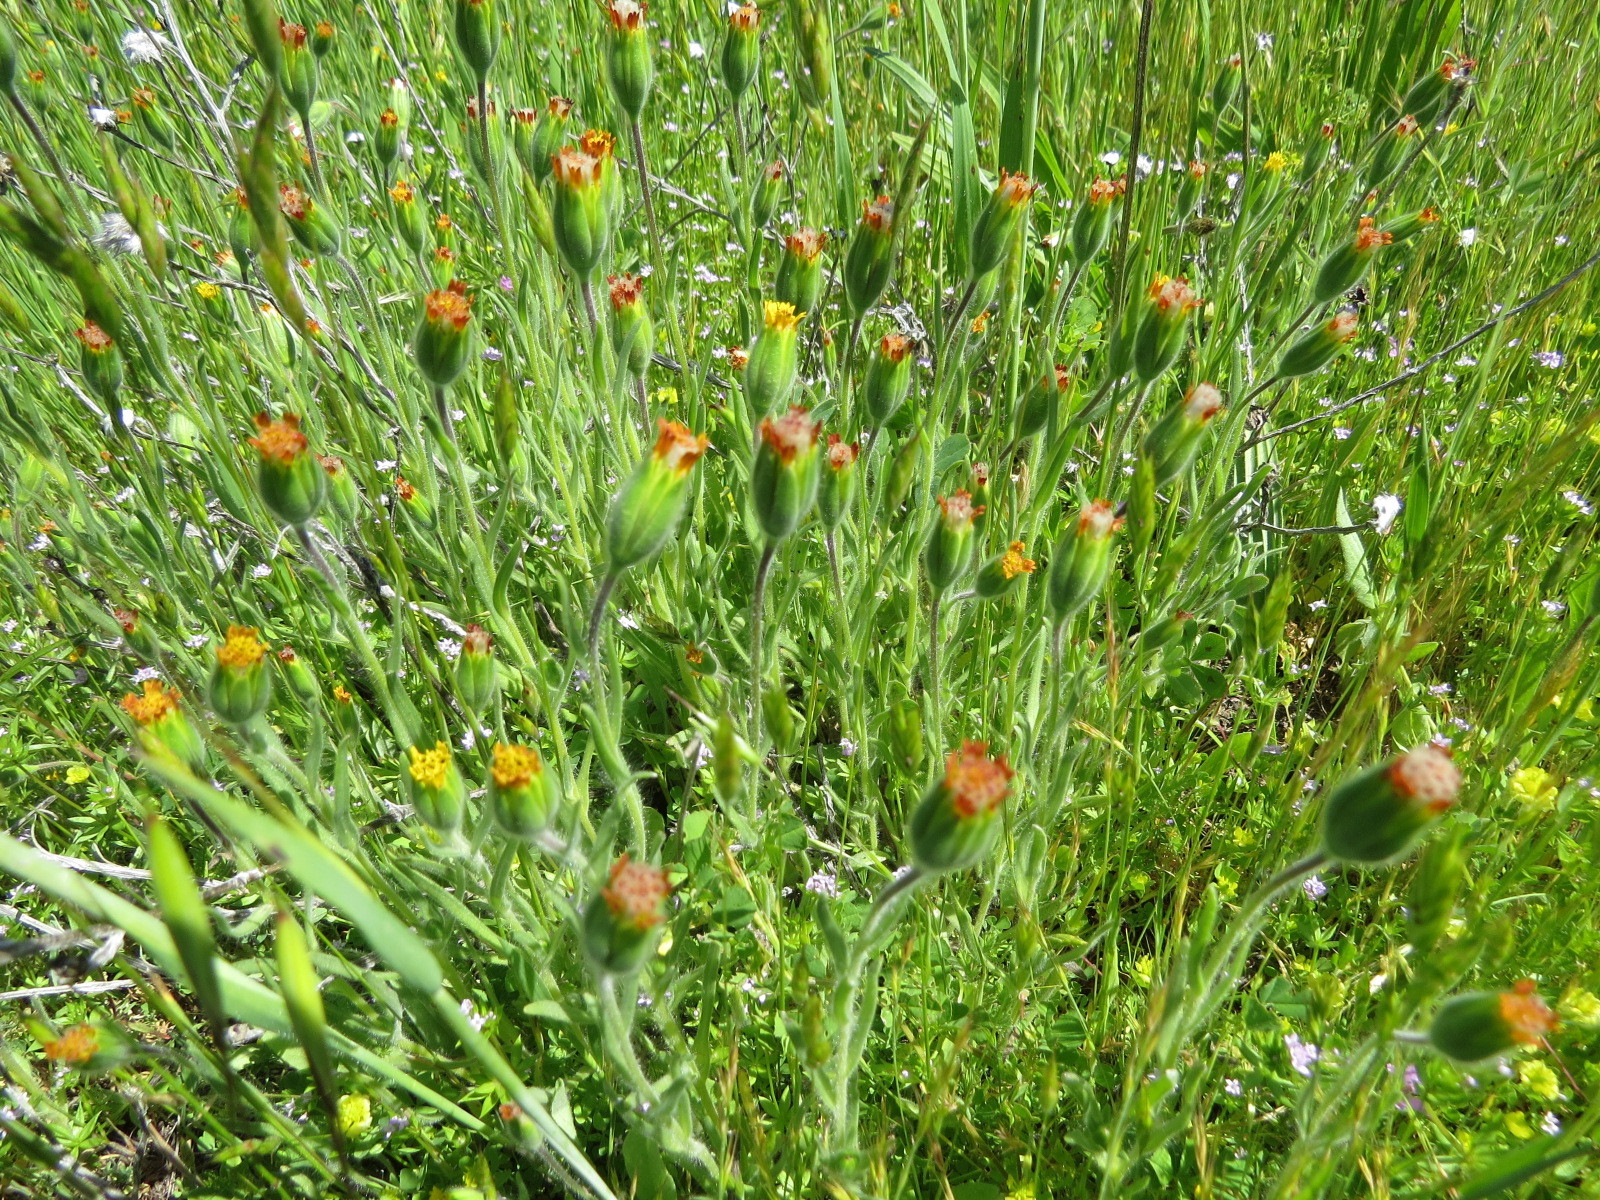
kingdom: Plantae
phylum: Tracheophyta
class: Magnoliopsida
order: Asterales
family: Asteraceae
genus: Achyrachaena
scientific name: Achyrachaena mollis
